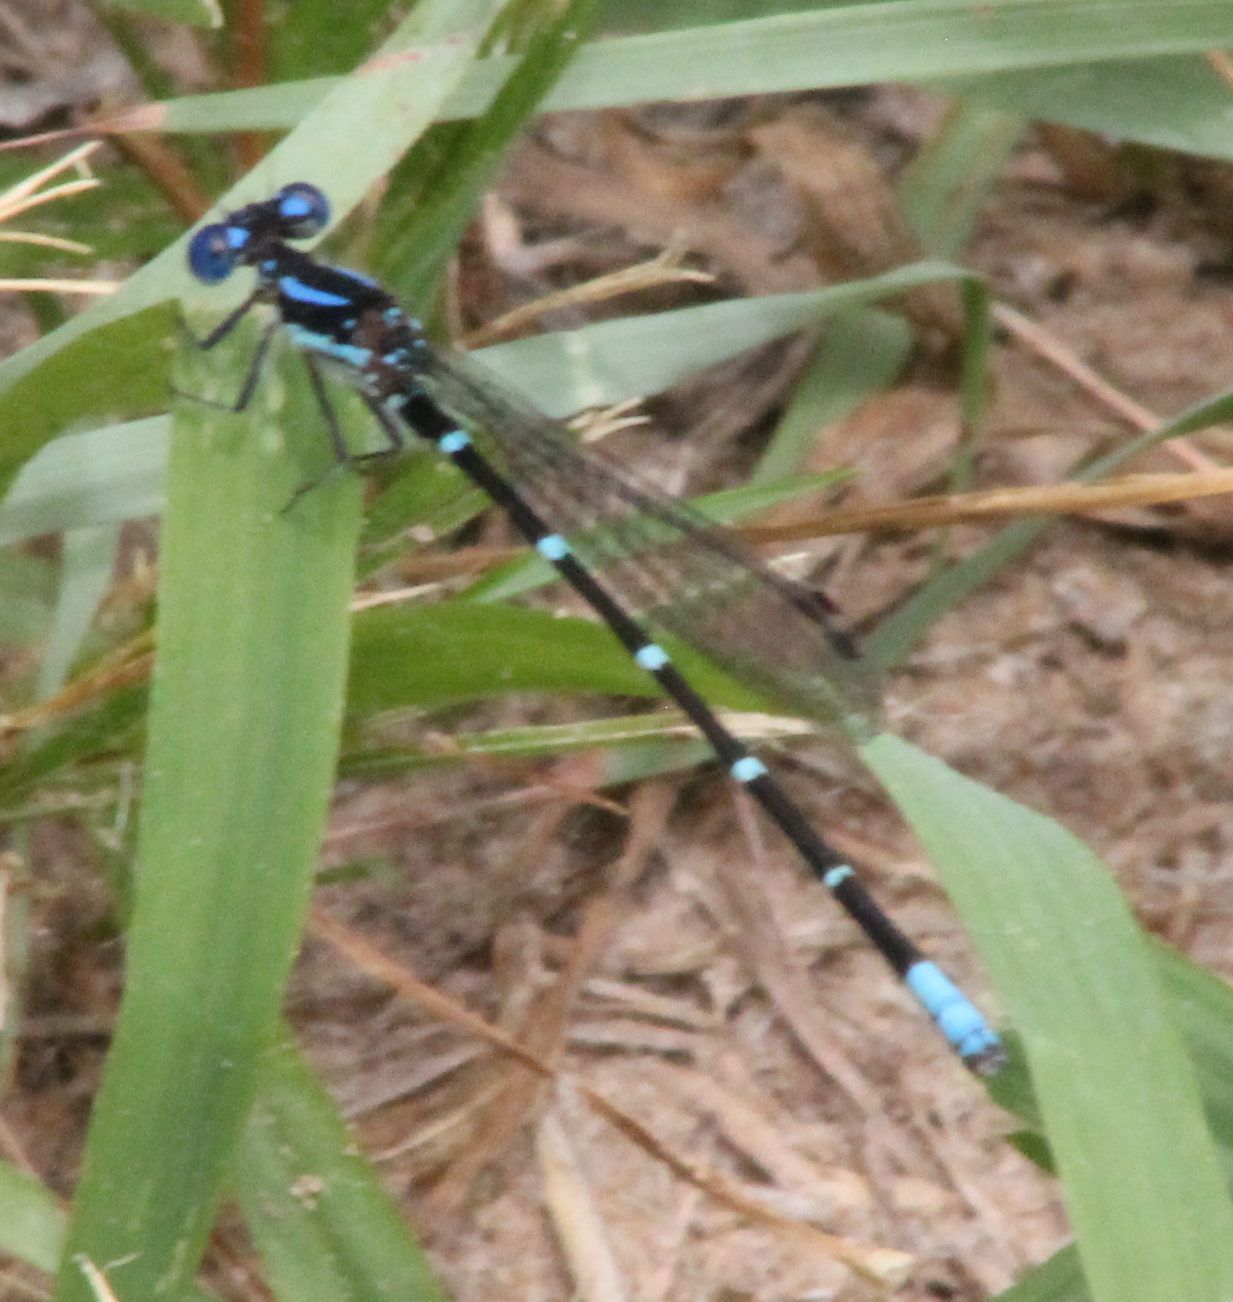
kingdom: Animalia
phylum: Arthropoda
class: Insecta
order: Odonata
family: Coenagrionidae
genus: Argia
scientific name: Argia sedula
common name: Blue-ringed dancer
